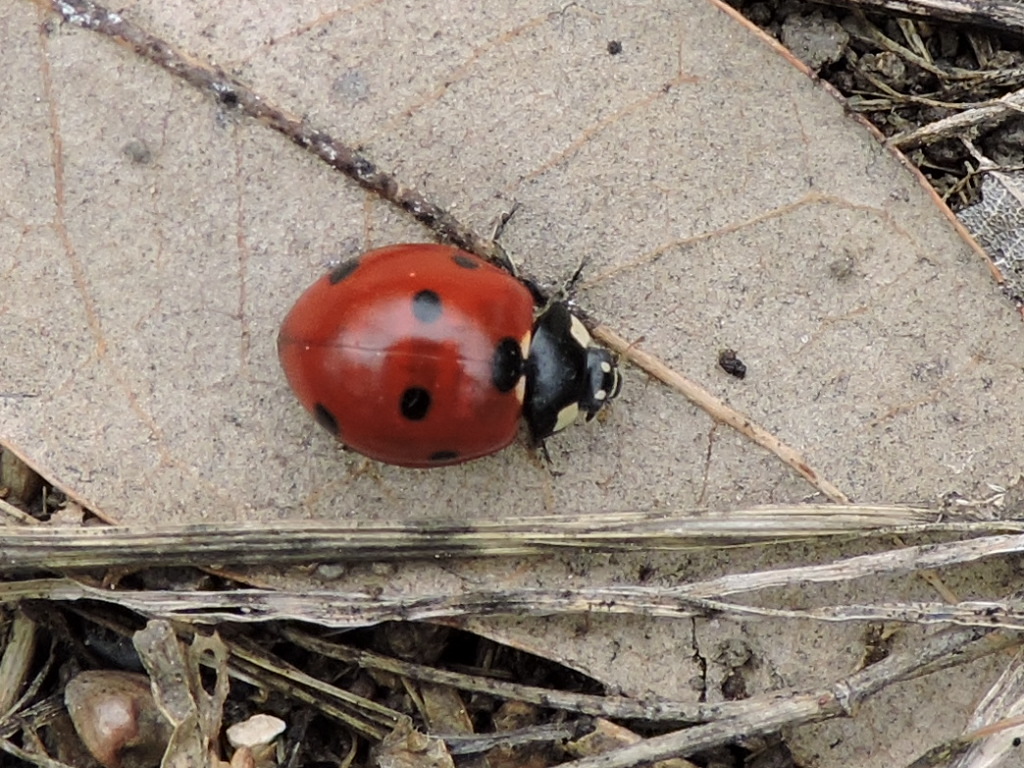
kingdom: Animalia
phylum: Arthropoda
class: Insecta
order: Coleoptera
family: Coccinellidae
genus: Coccinella
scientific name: Coccinella septempunctata
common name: Sevenspotted lady beetle
